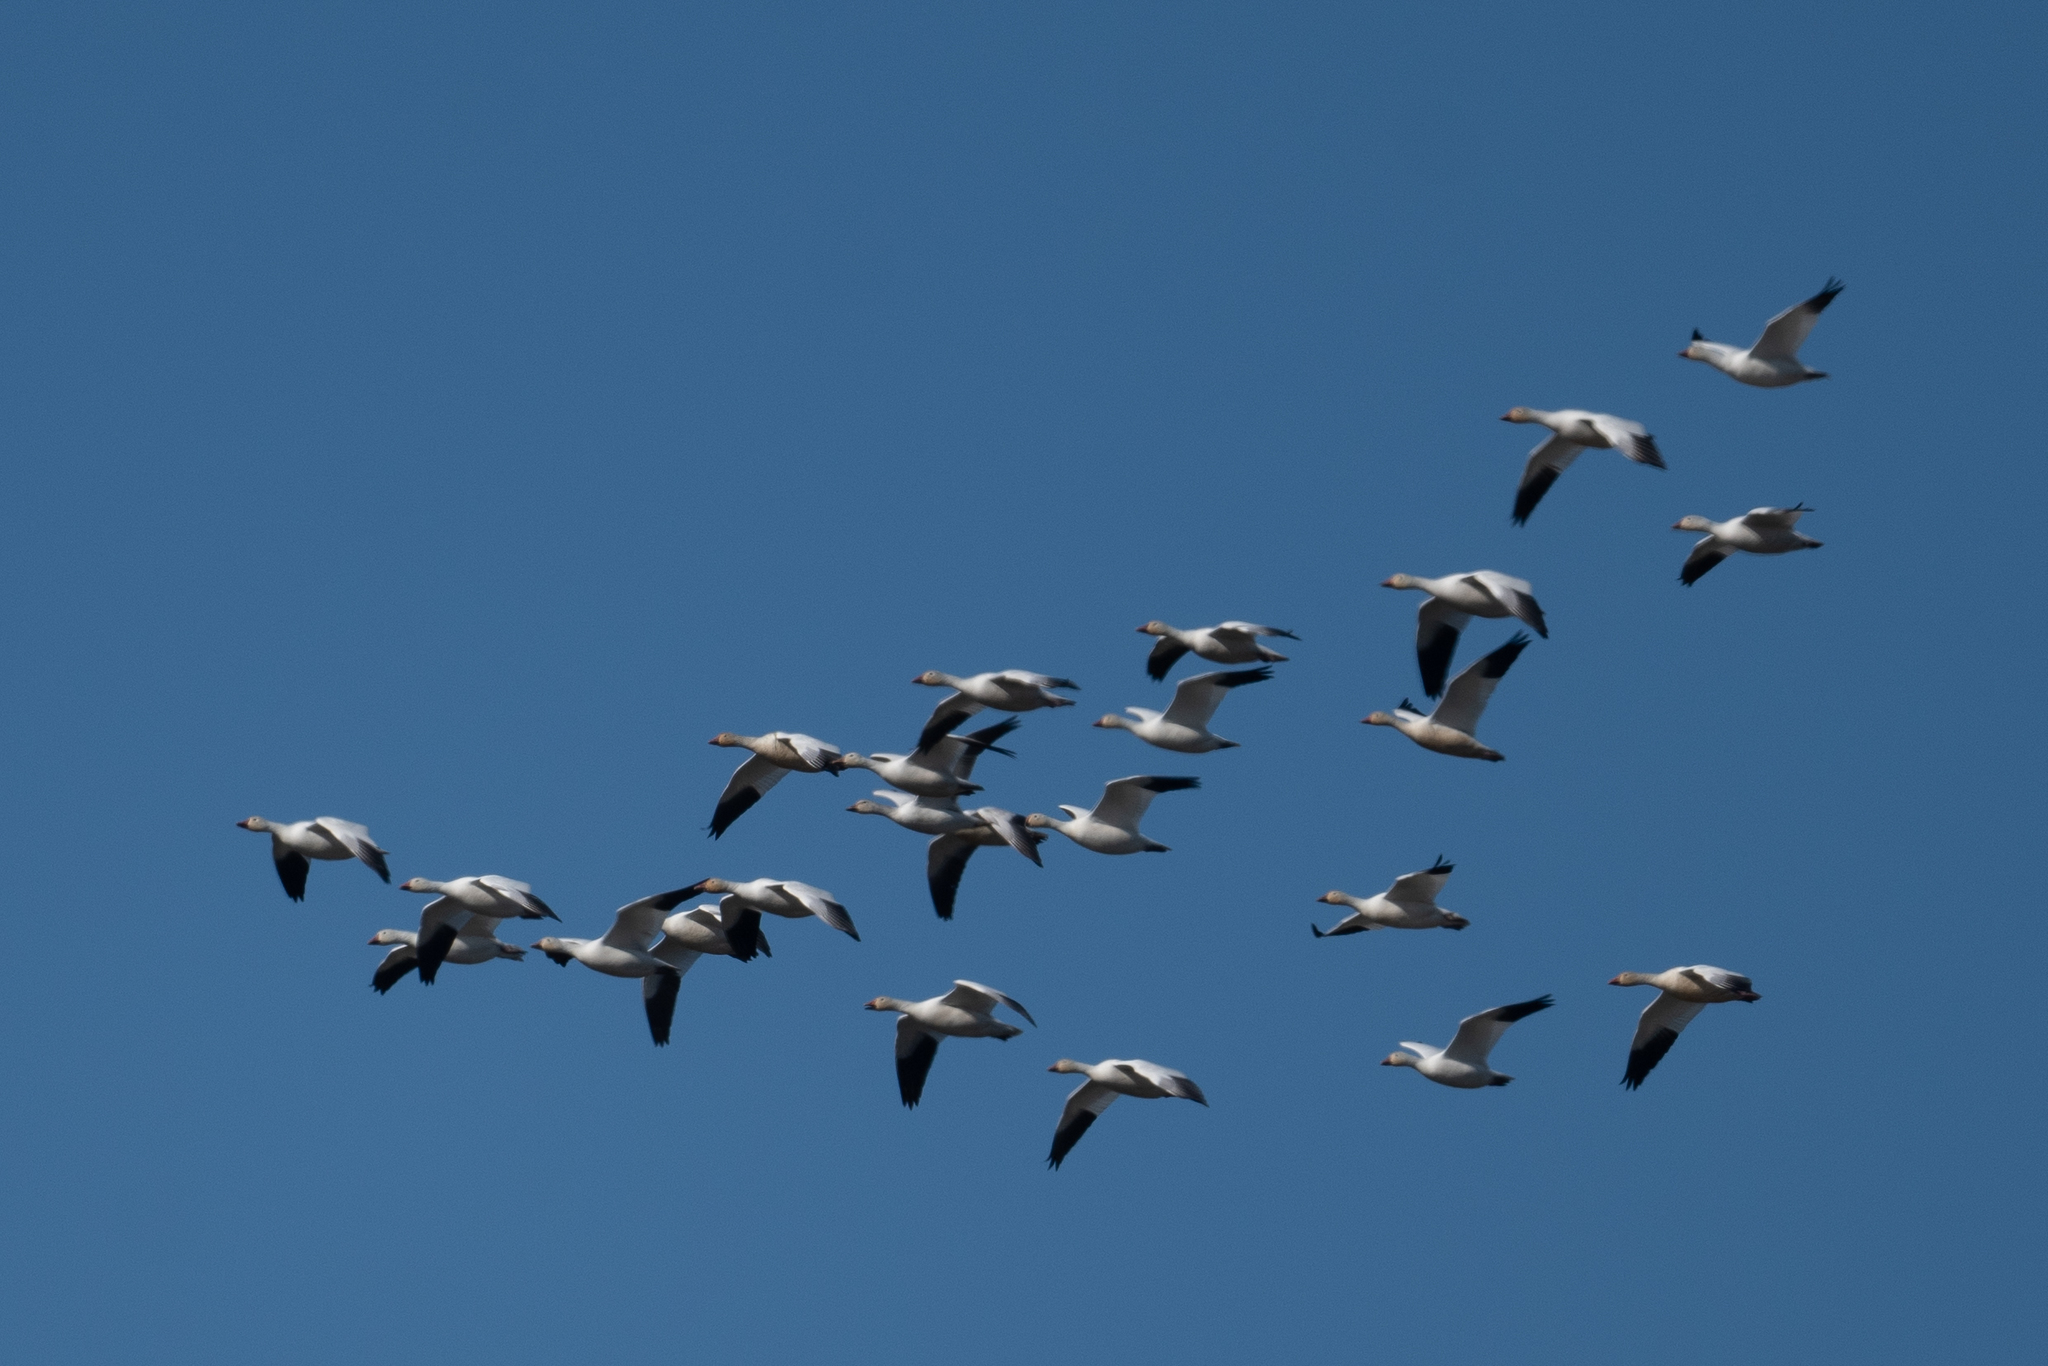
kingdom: Animalia
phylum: Chordata
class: Aves
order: Anseriformes
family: Anatidae
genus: Anser
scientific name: Anser caerulescens
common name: Snow goose
